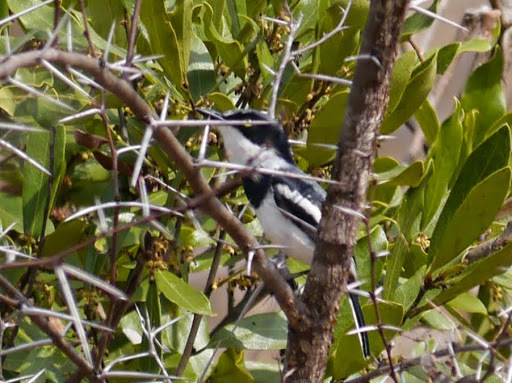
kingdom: Animalia
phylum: Chordata
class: Aves
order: Passeriformes
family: Platysteiridae
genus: Batis
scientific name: Batis molitor
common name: Chinspot batis
